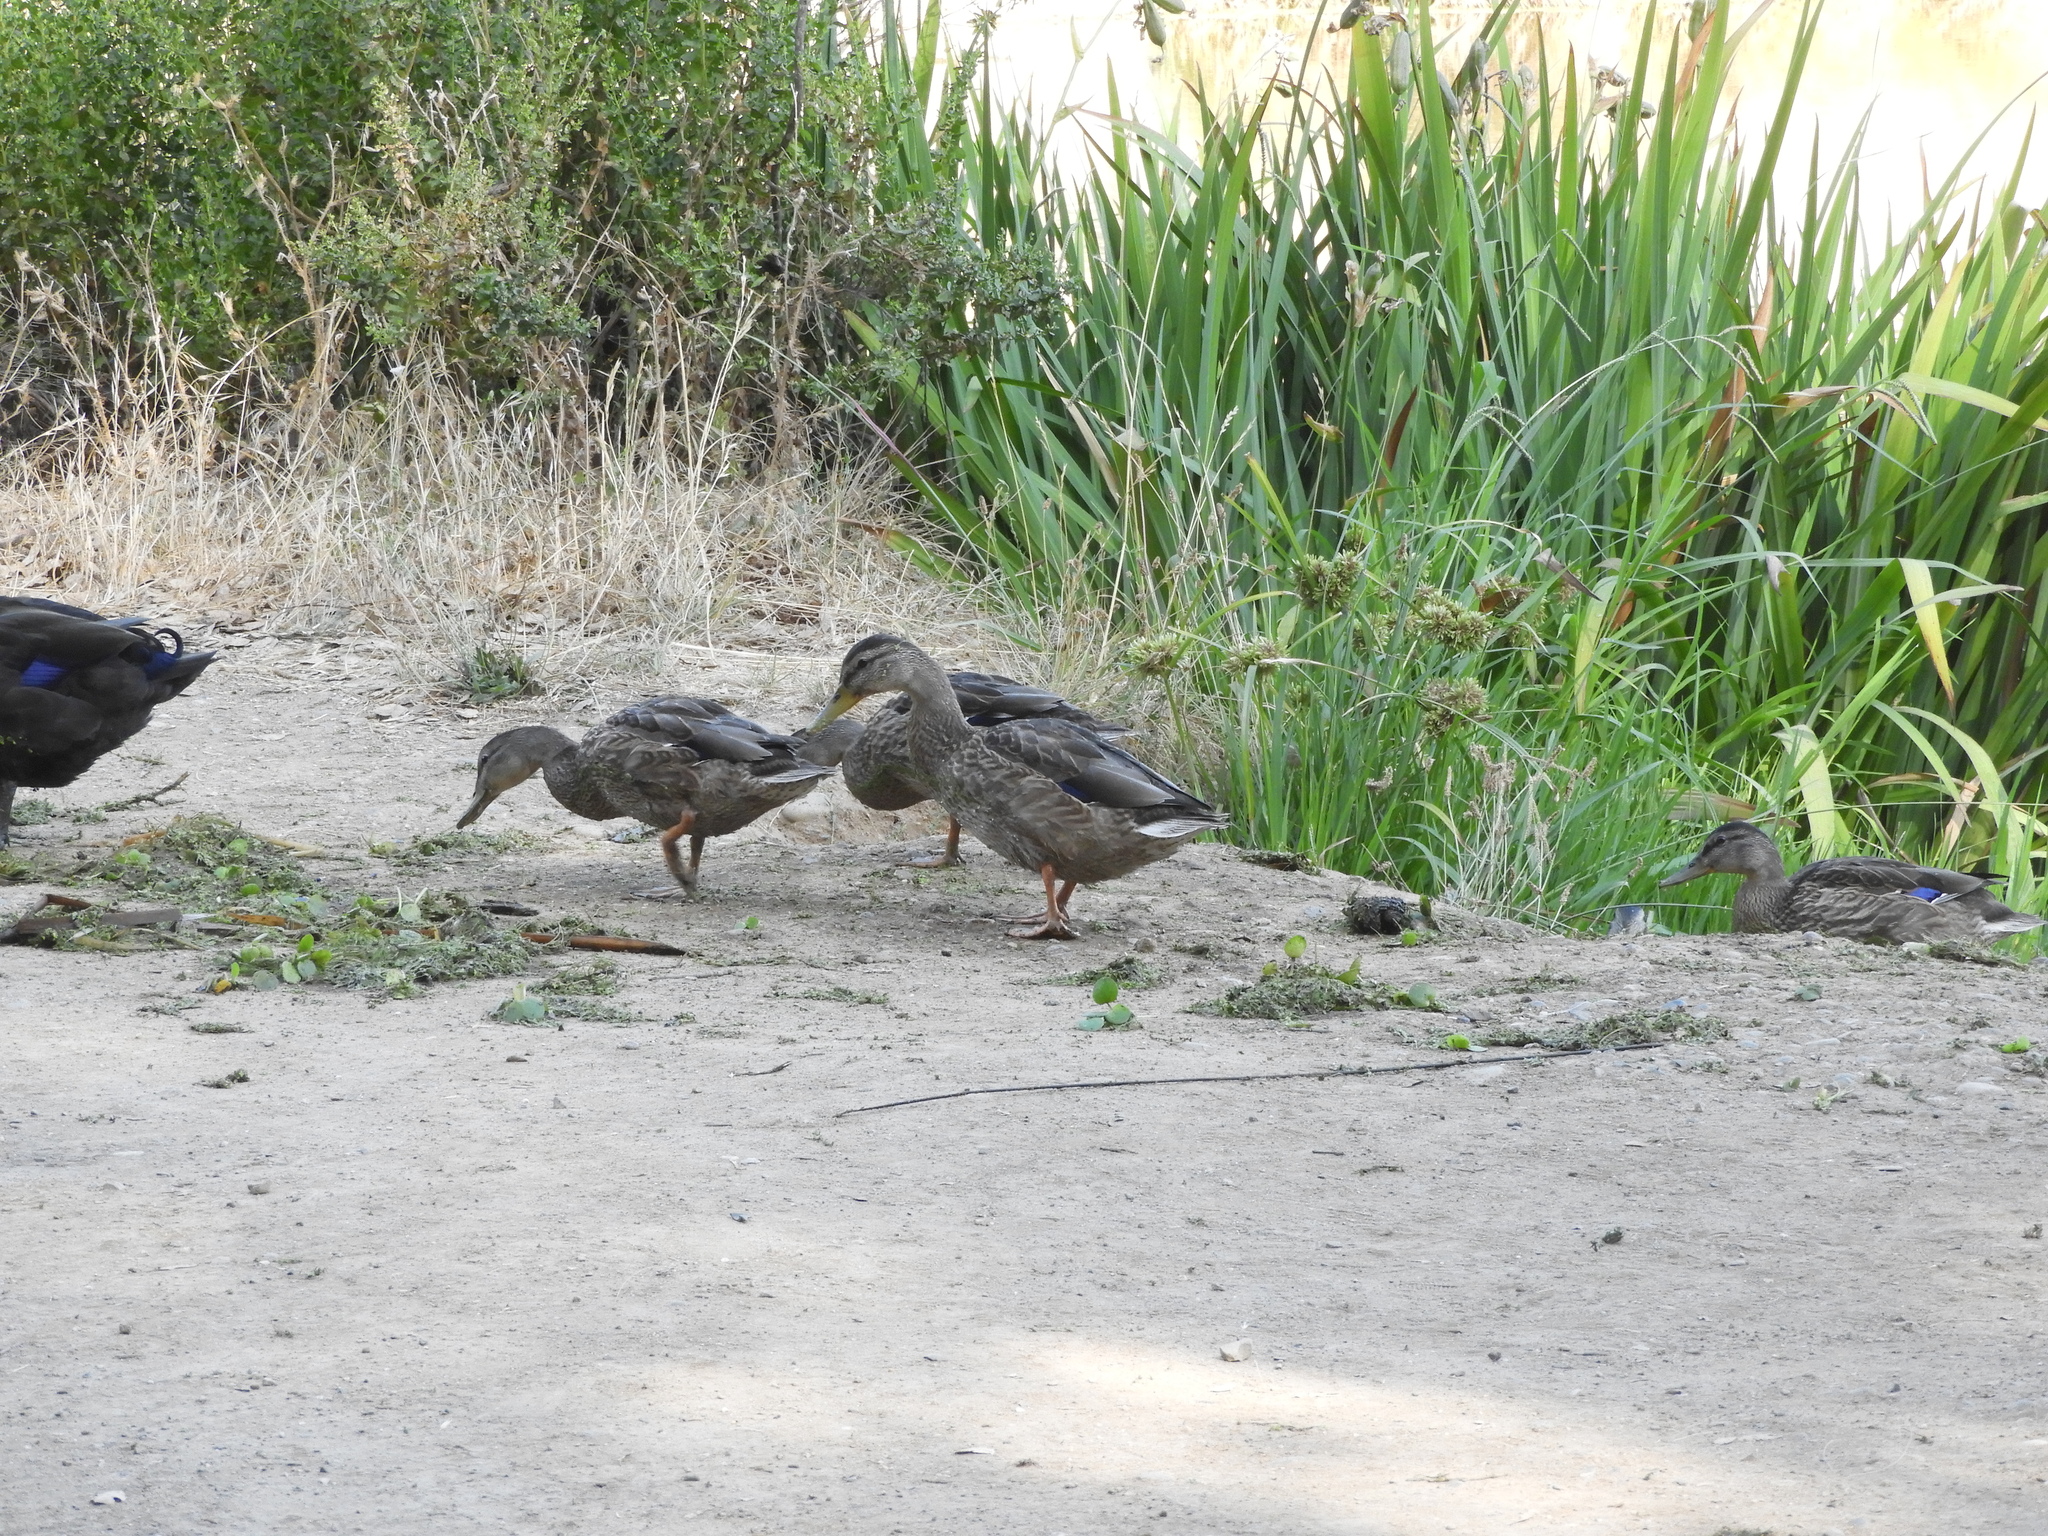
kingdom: Animalia
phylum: Chordata
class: Aves
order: Anseriformes
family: Anatidae
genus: Anas
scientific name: Anas platyrhynchos
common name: Mallard
